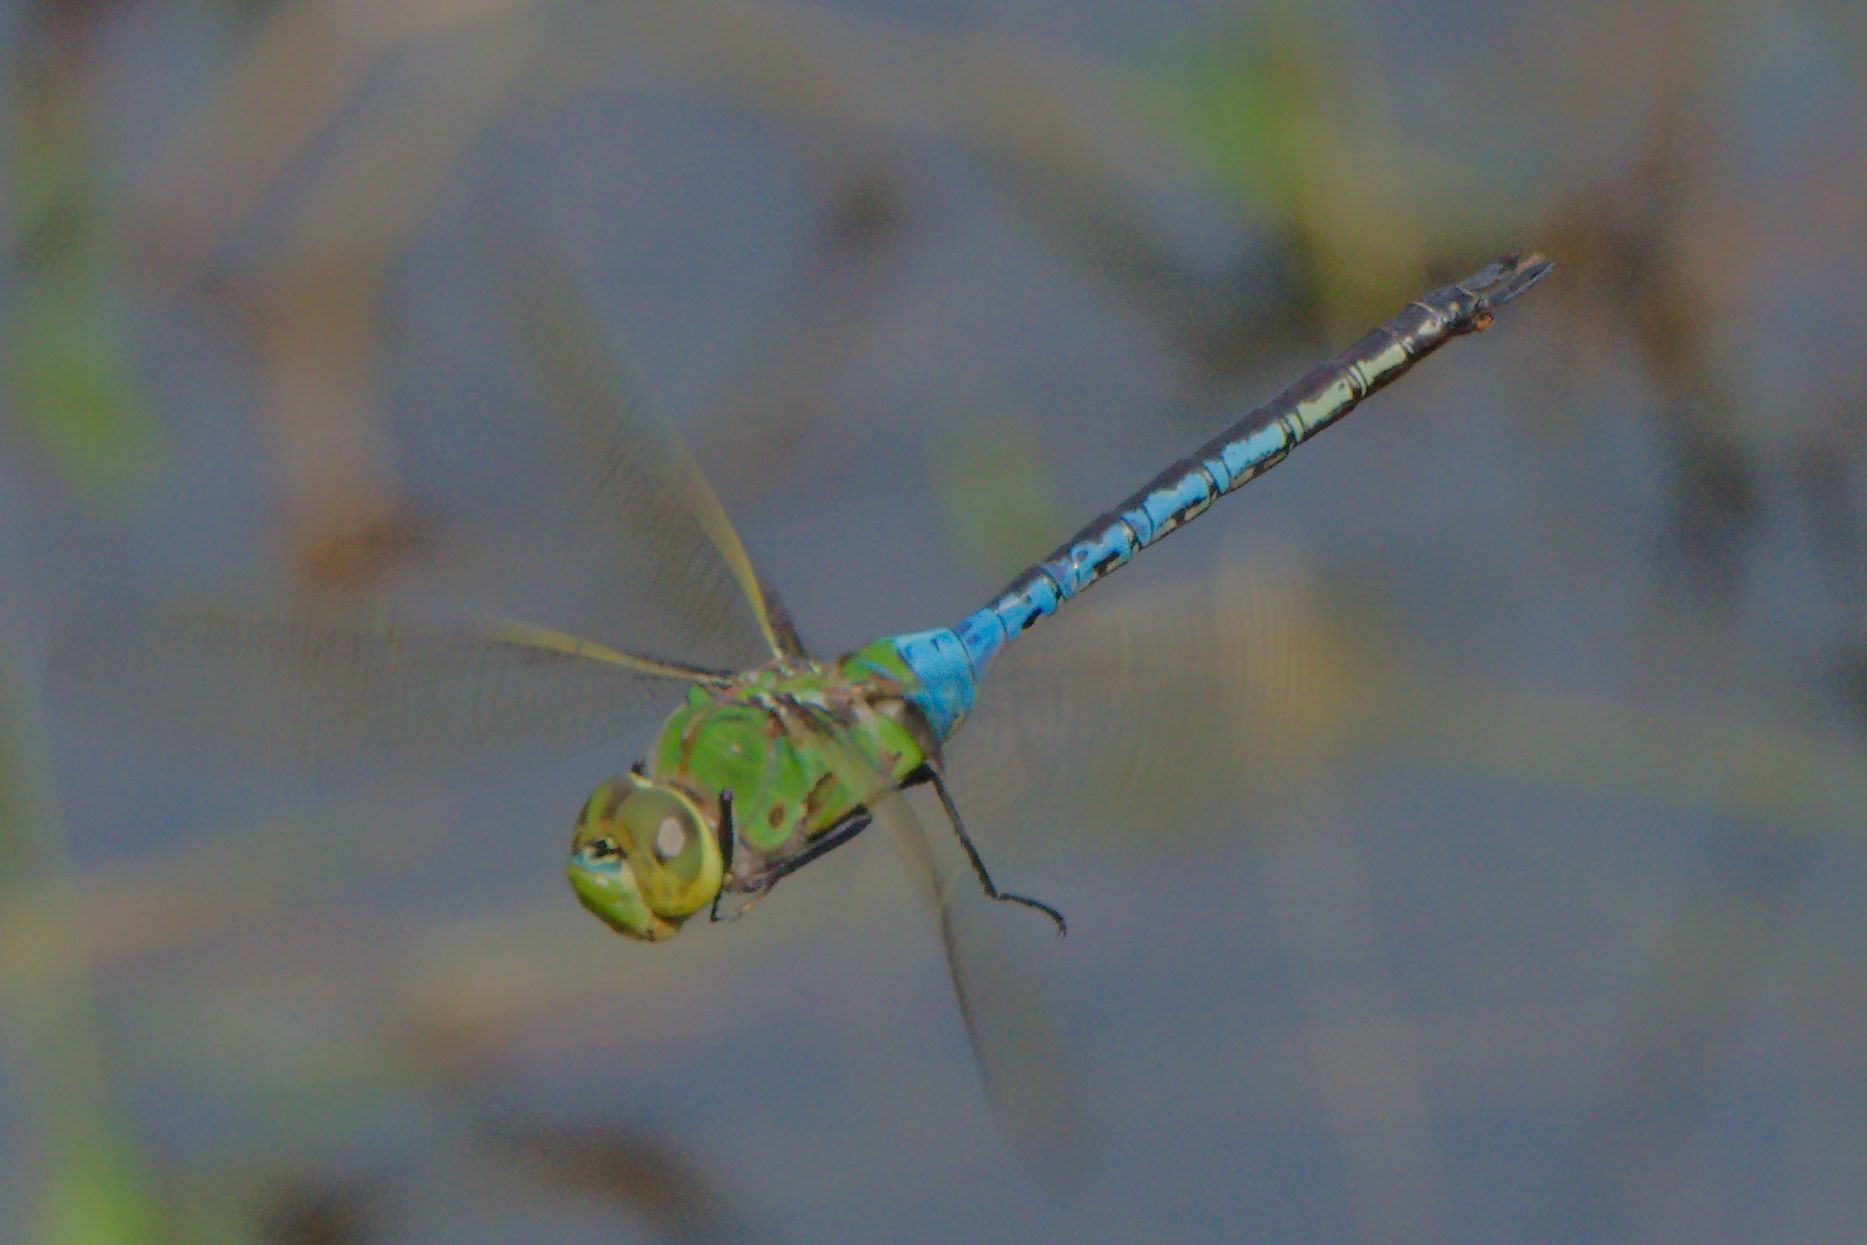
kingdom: Animalia
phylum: Arthropoda
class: Insecta
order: Odonata
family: Aeshnidae
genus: Anax
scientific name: Anax junius
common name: Common green darner
